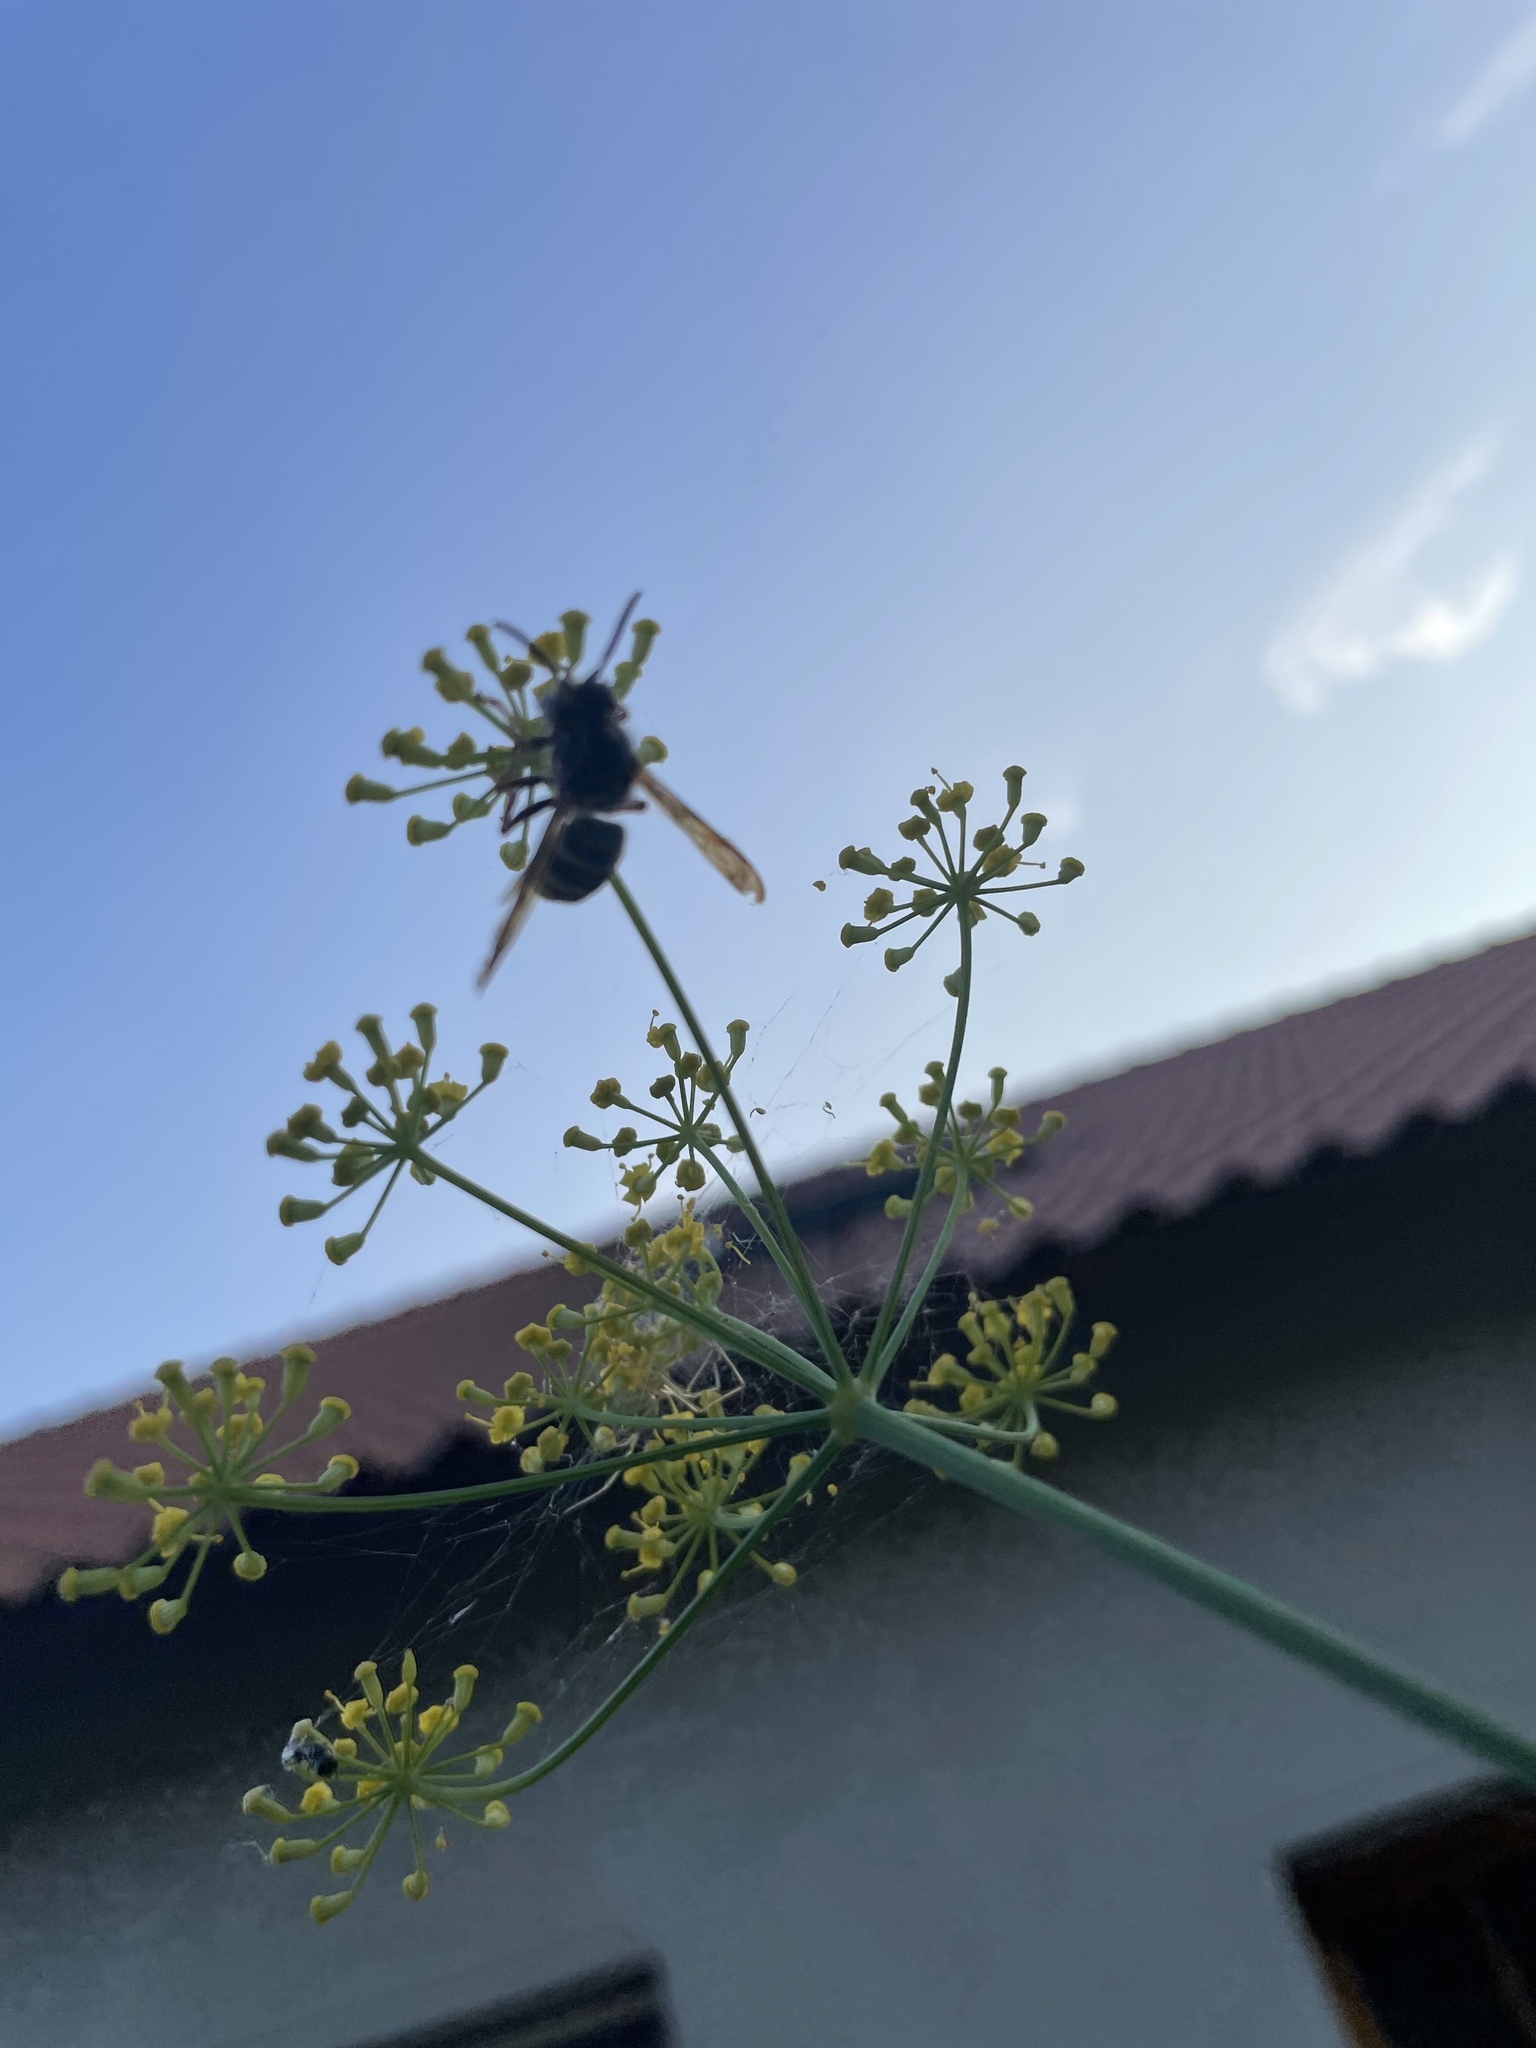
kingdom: Animalia
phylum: Arthropoda
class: Insecta
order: Hymenoptera
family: Vespidae
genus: Vespa
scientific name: Vespa velutina
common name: Asian hornet
